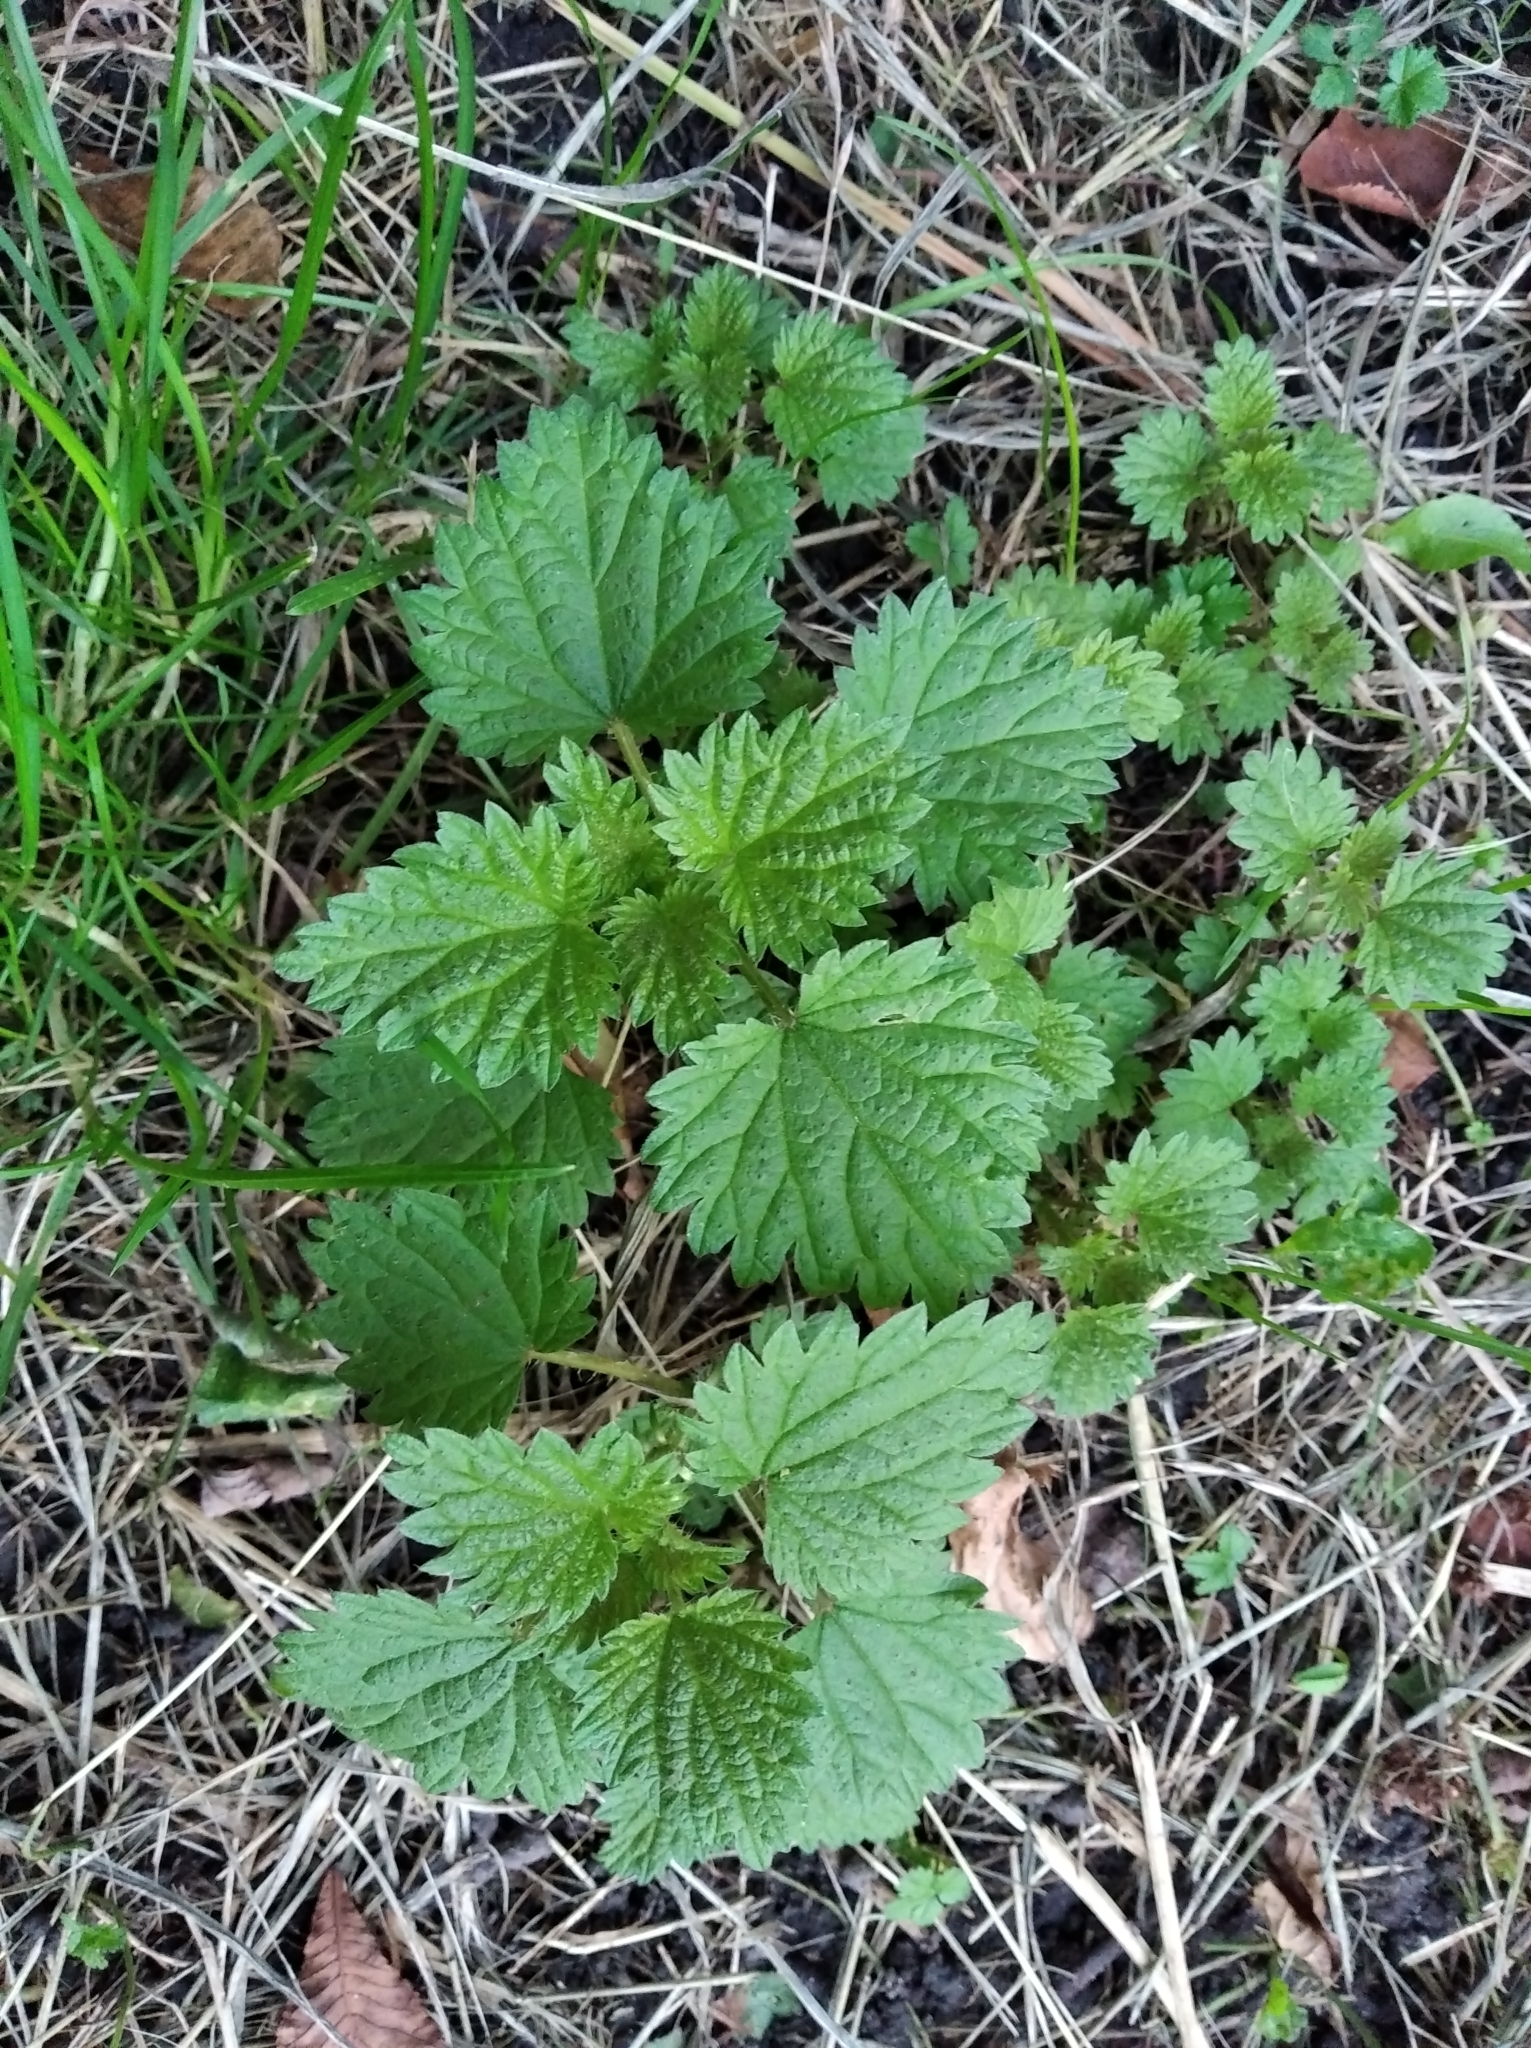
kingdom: Plantae
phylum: Tracheophyta
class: Magnoliopsida
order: Rosales
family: Urticaceae
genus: Urtica
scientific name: Urtica dioica
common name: Common nettle
